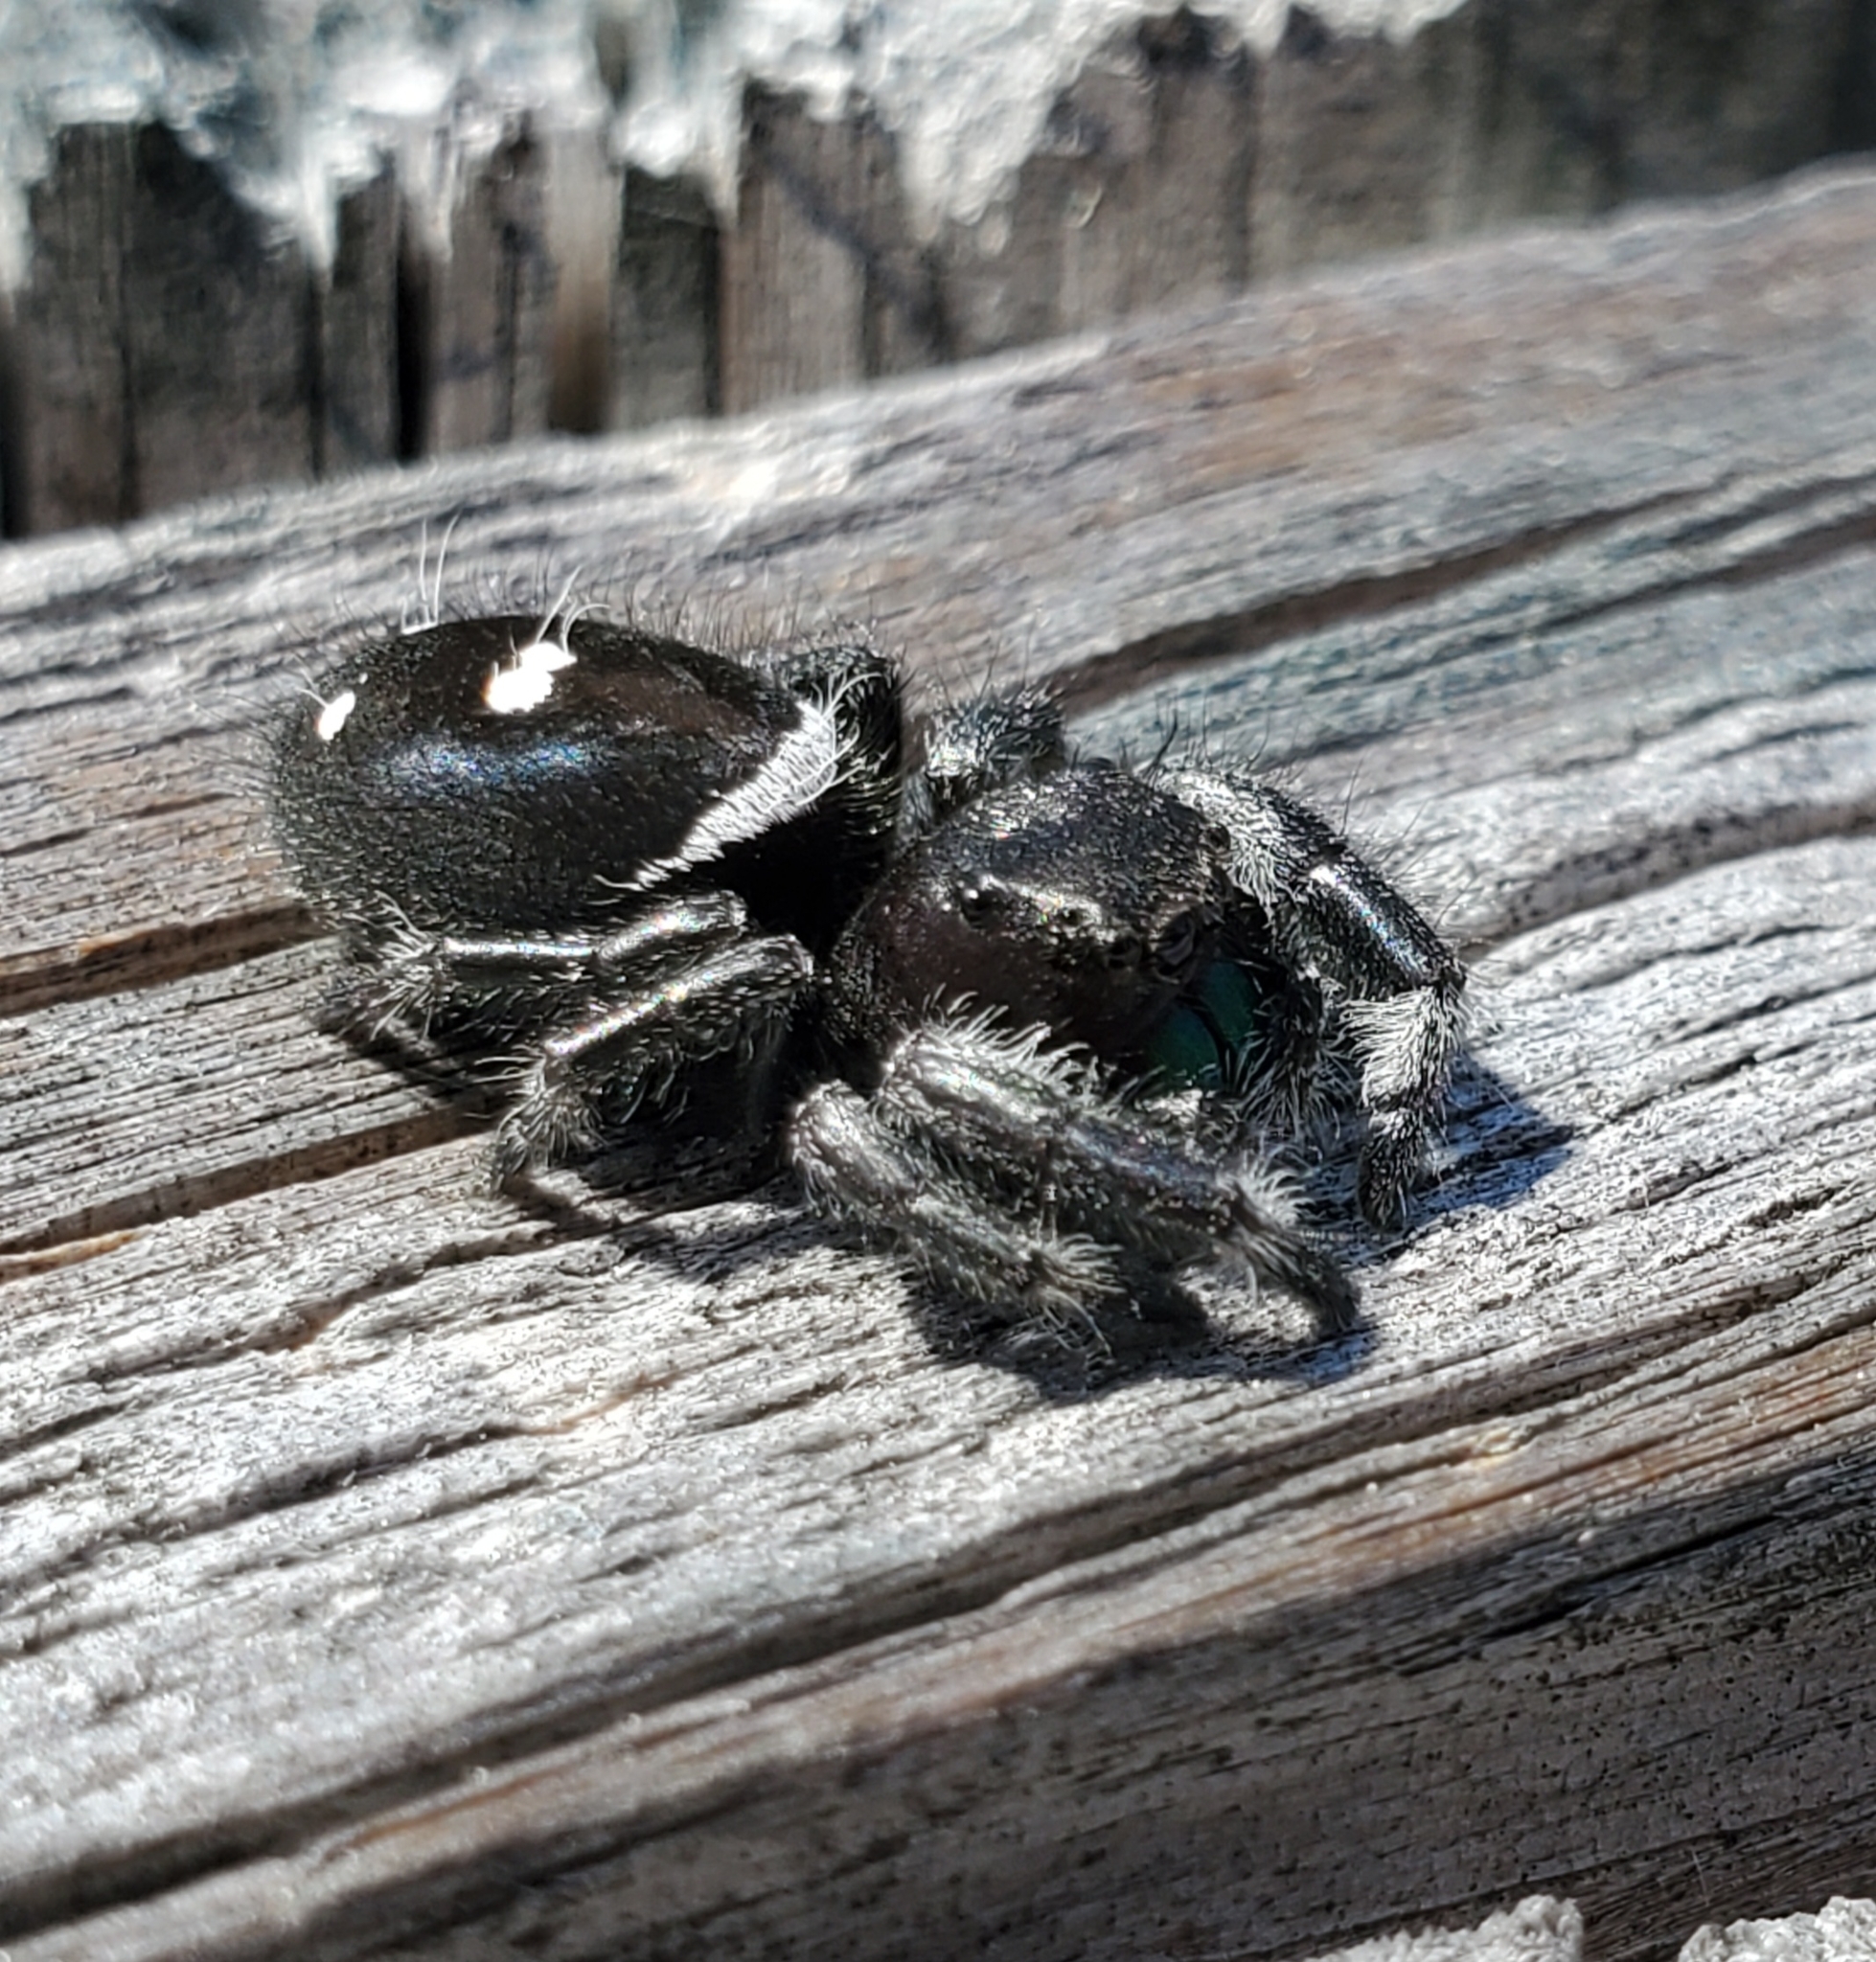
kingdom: Animalia
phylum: Arthropoda
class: Arachnida
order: Araneae
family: Salticidae
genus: Phidippus
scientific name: Phidippus regius
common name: Regal jumper
